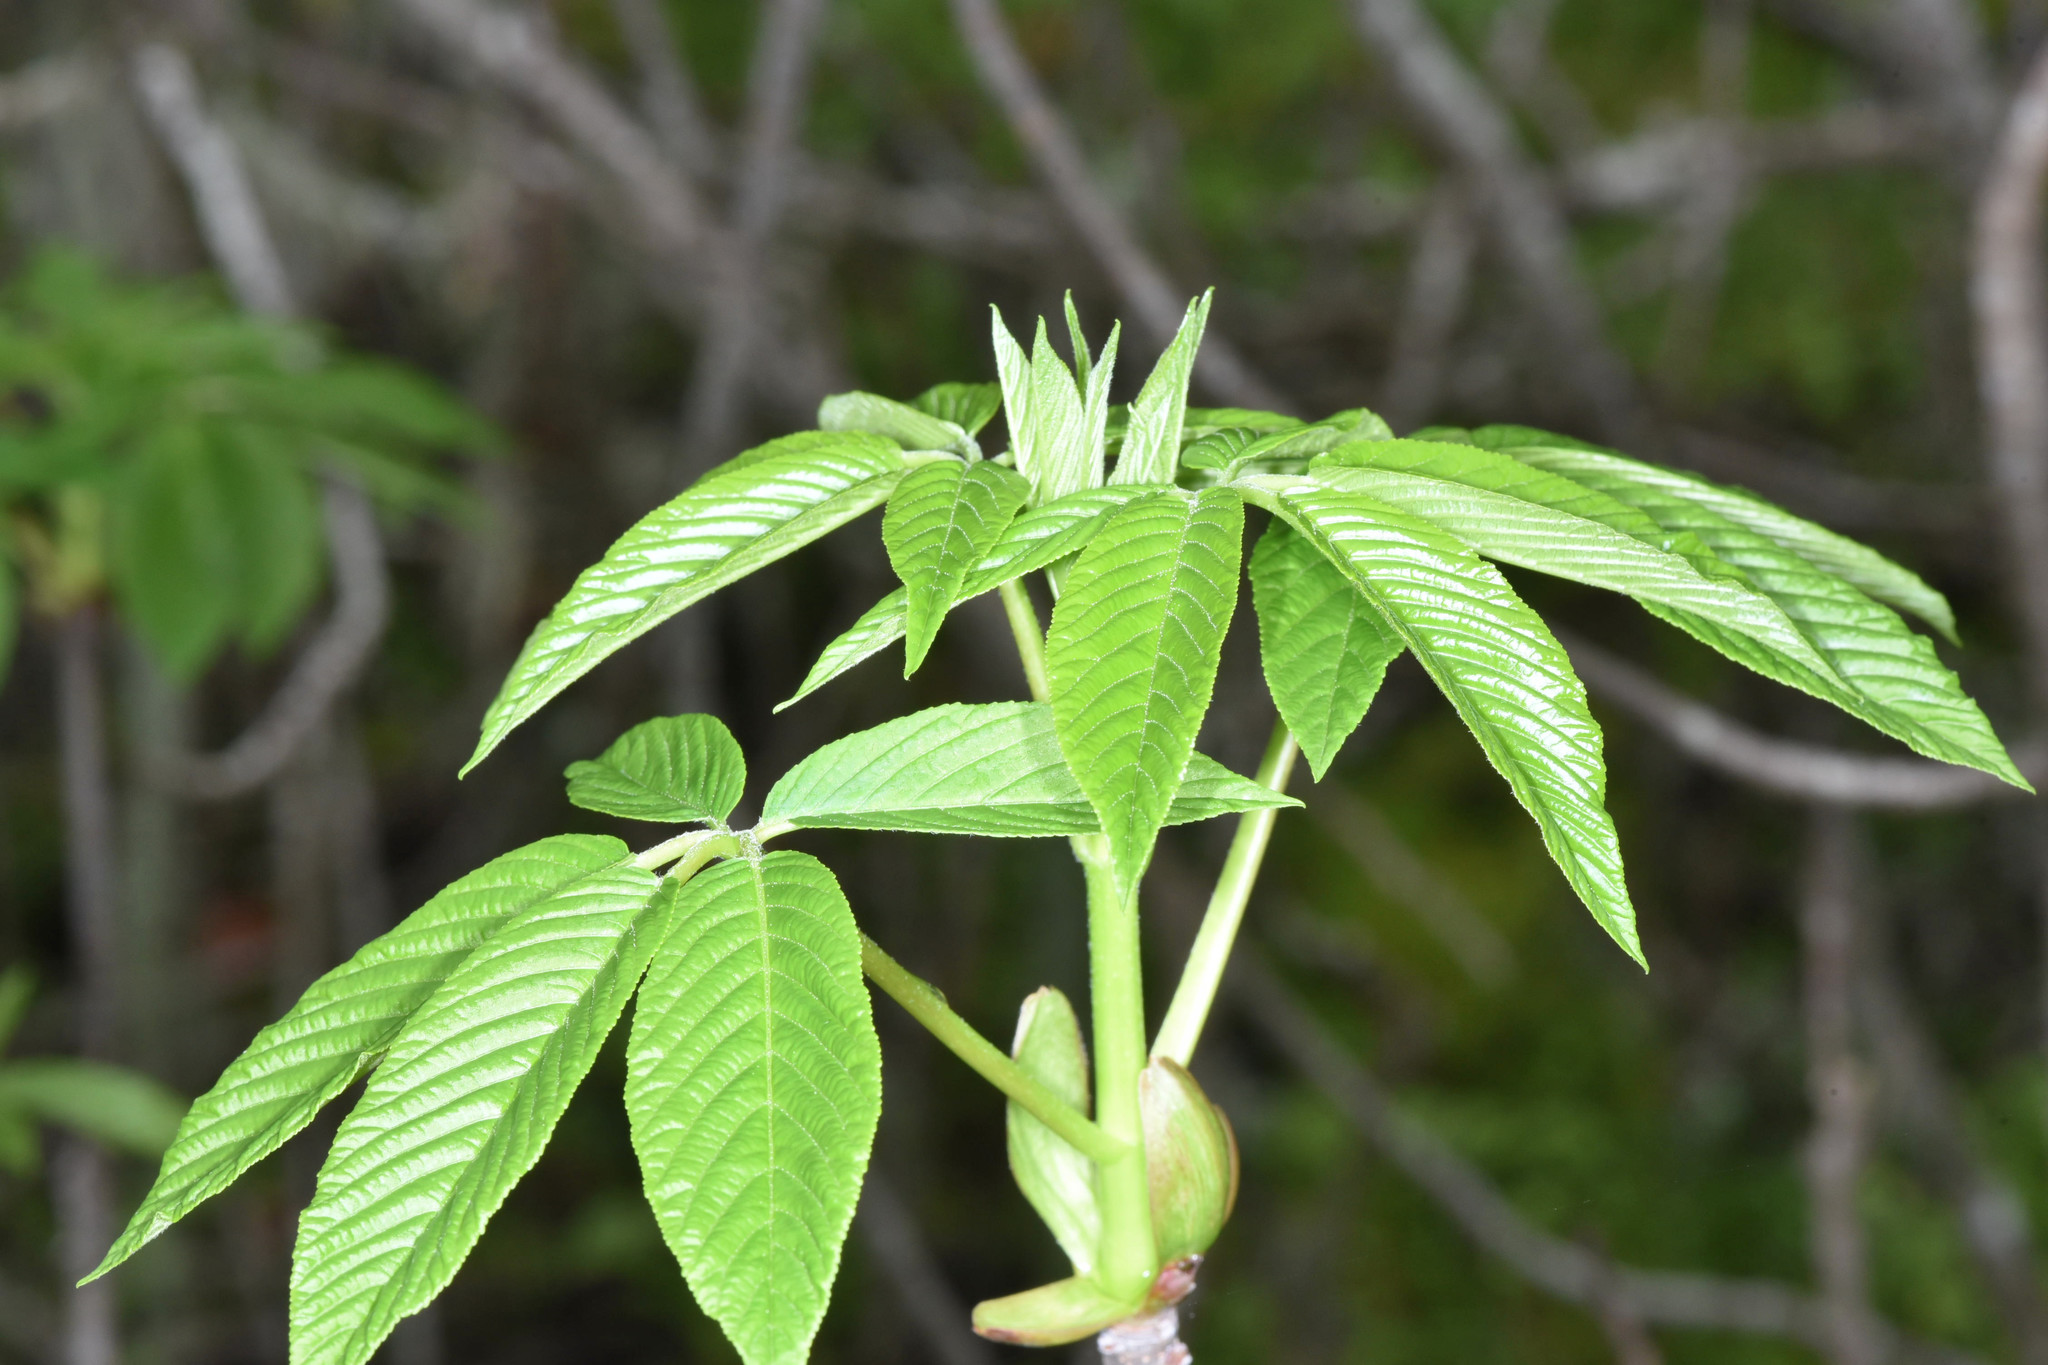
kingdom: Plantae
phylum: Tracheophyta
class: Magnoliopsida
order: Sapindales
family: Sapindaceae
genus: Aesculus
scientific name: Aesculus californica
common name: California buckeye
